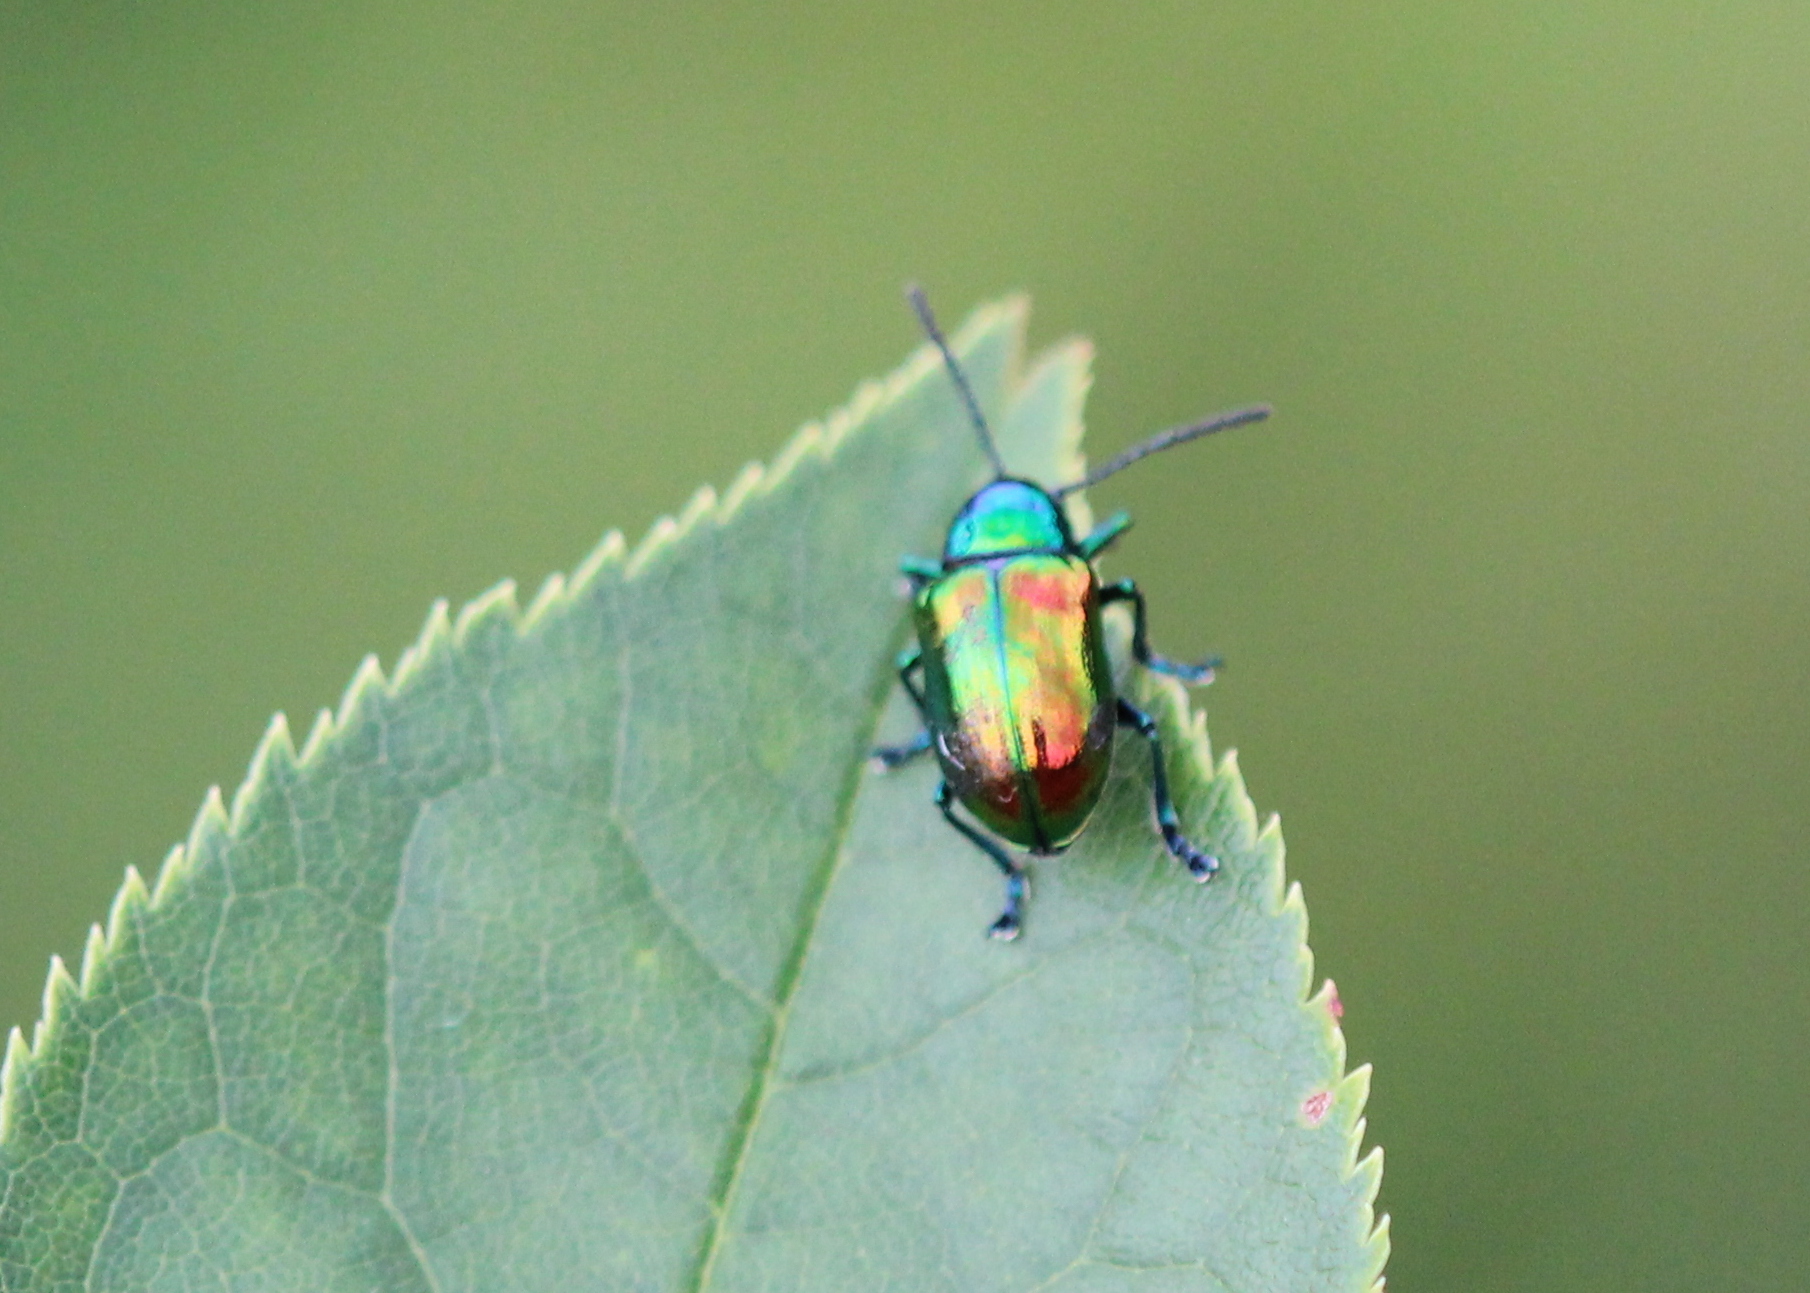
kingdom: Animalia
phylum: Arthropoda
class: Insecta
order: Coleoptera
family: Chrysomelidae
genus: Chrysochus
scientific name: Chrysochus auratus
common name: Dogbane leaf beetle
